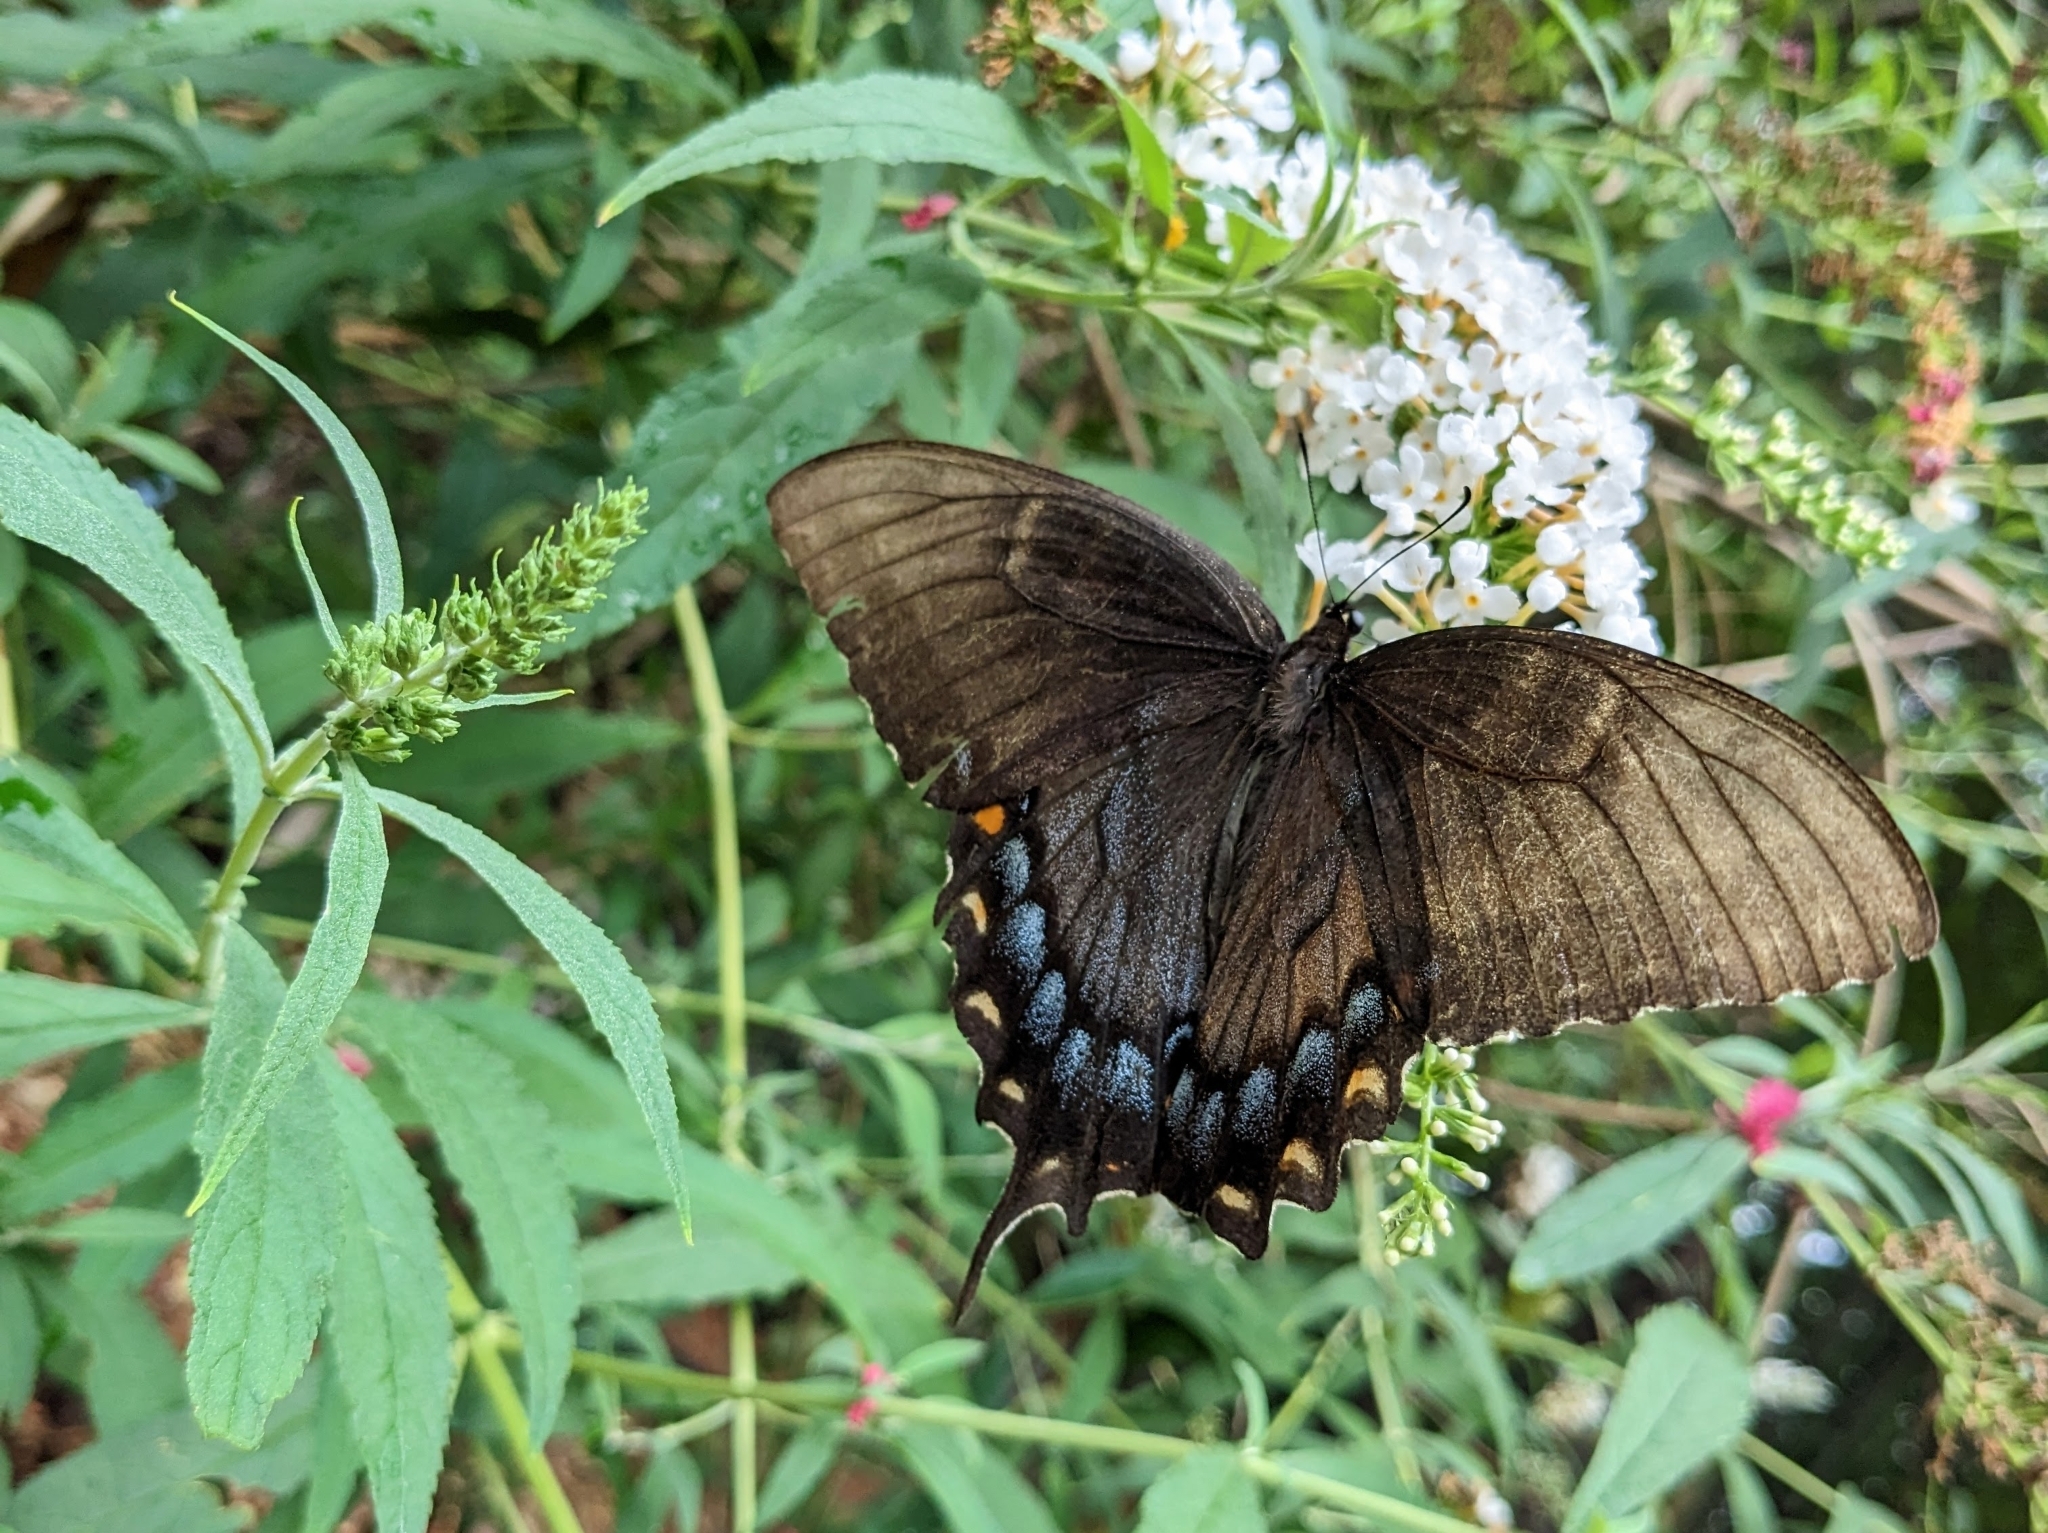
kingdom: Animalia
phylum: Arthropoda
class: Insecta
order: Lepidoptera
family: Papilionidae
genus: Papilio
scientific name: Papilio glaucus
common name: Tiger swallowtail
